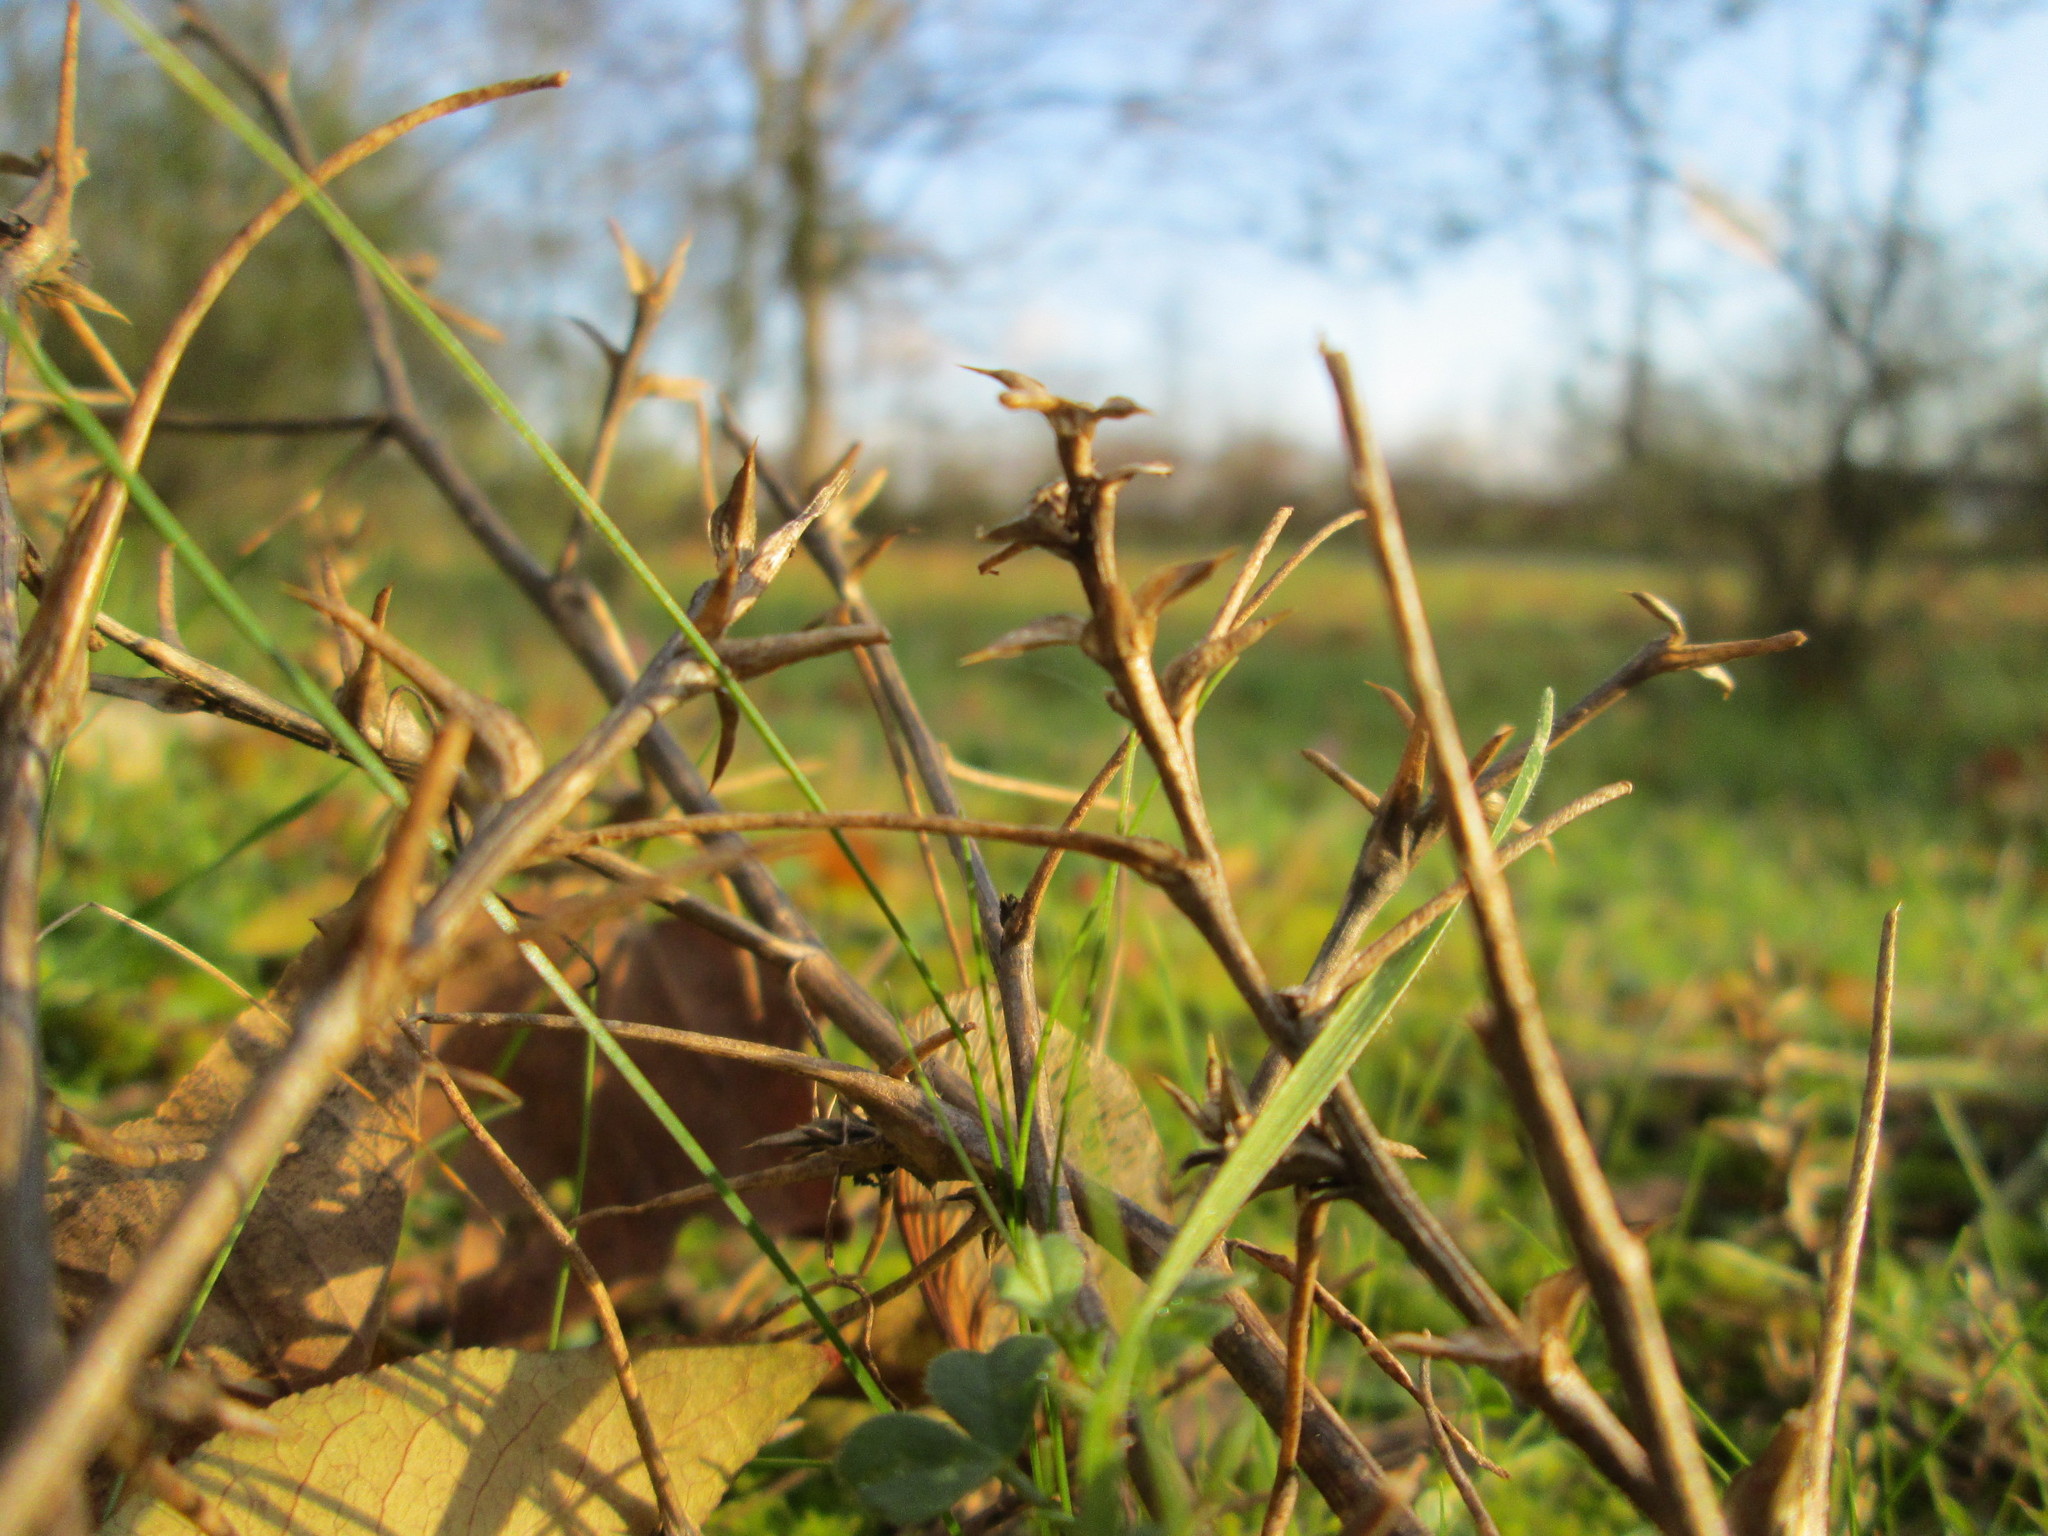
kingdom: Plantae
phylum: Tracheophyta
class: Magnoliopsida
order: Caryophyllales
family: Amaranthaceae
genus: Salsola
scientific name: Salsola tragus
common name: Prickly russian thistle
